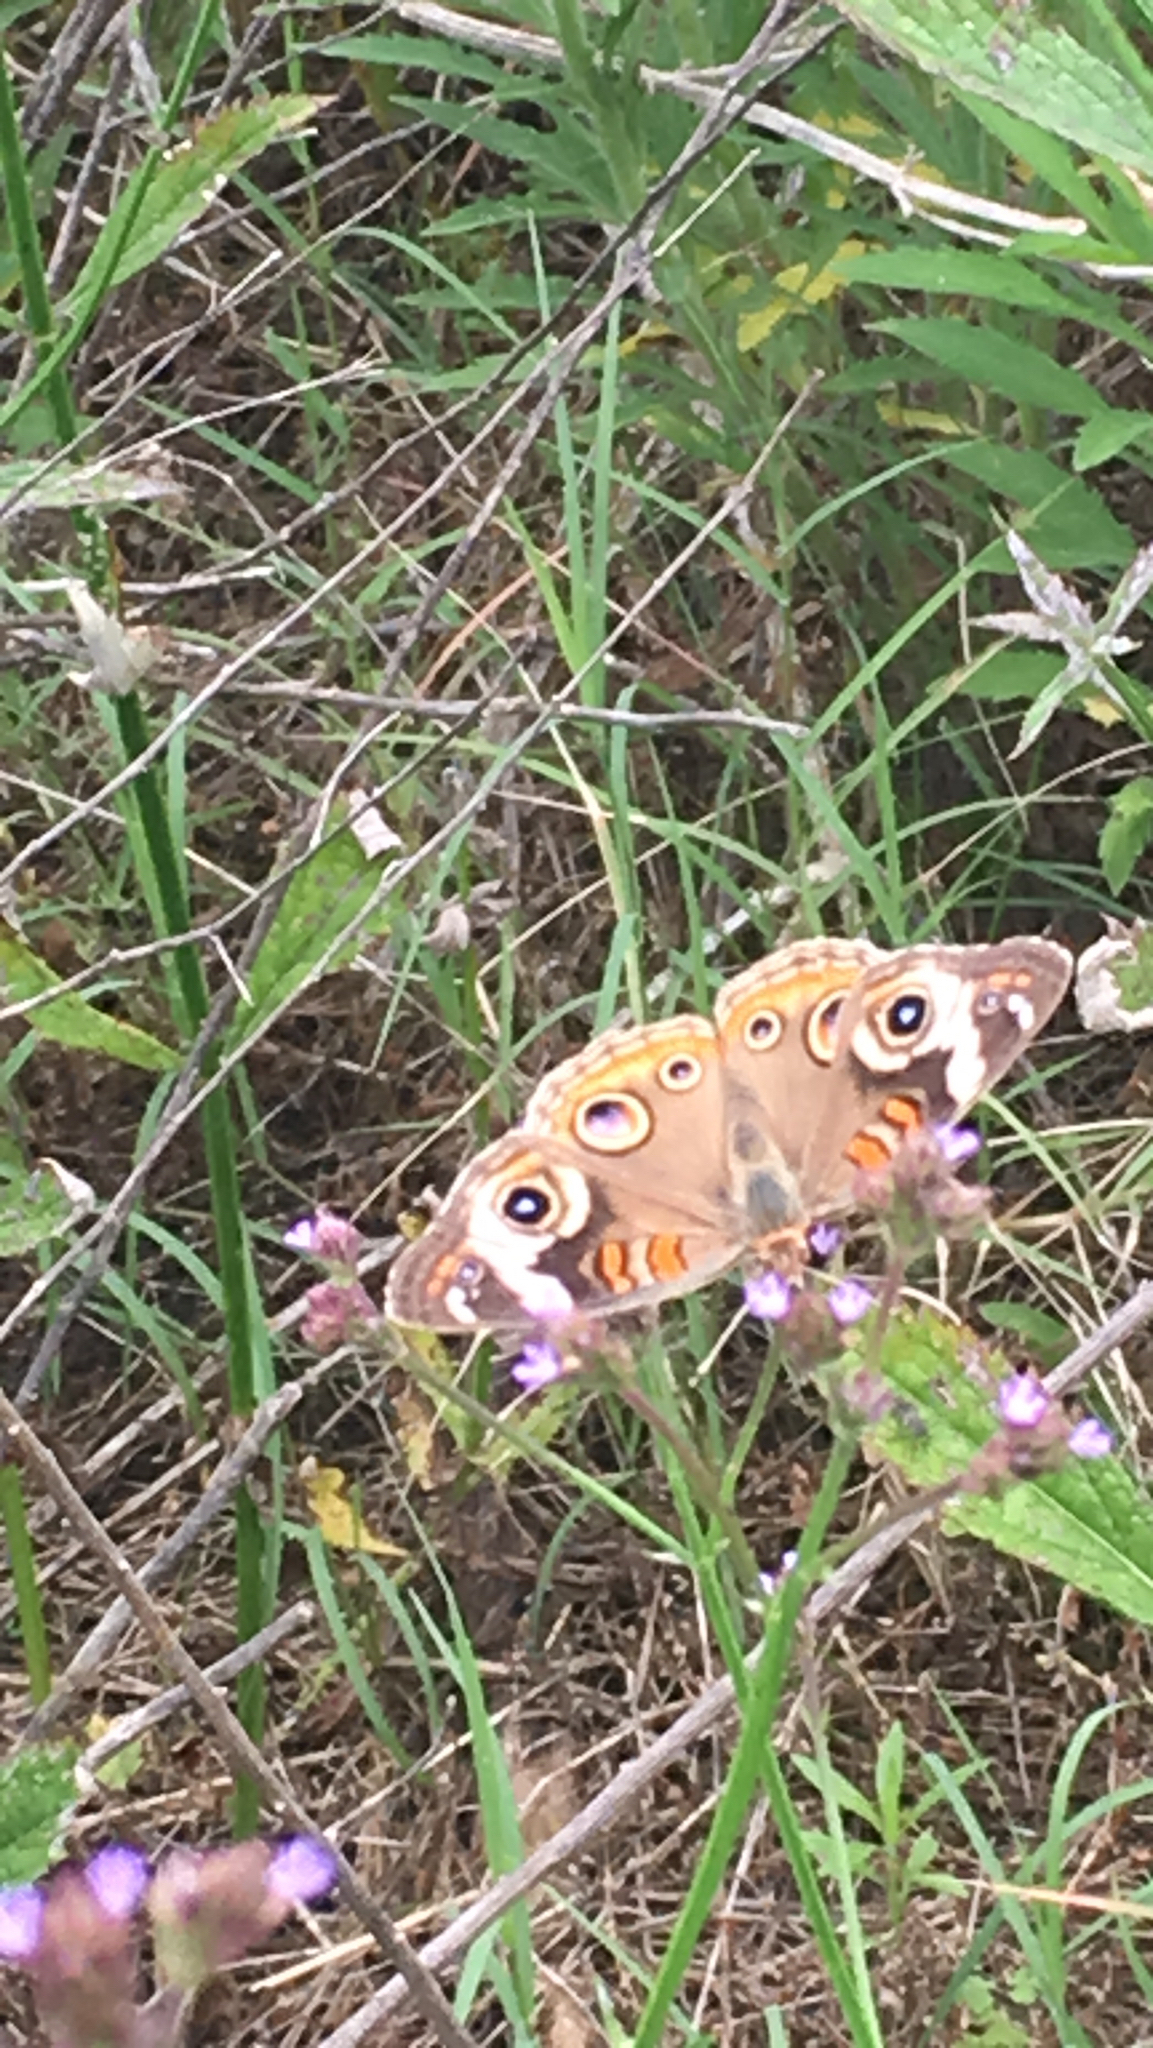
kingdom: Animalia
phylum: Arthropoda
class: Insecta
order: Lepidoptera
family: Nymphalidae
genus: Junonia
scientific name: Junonia coenia
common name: Common buckeye
